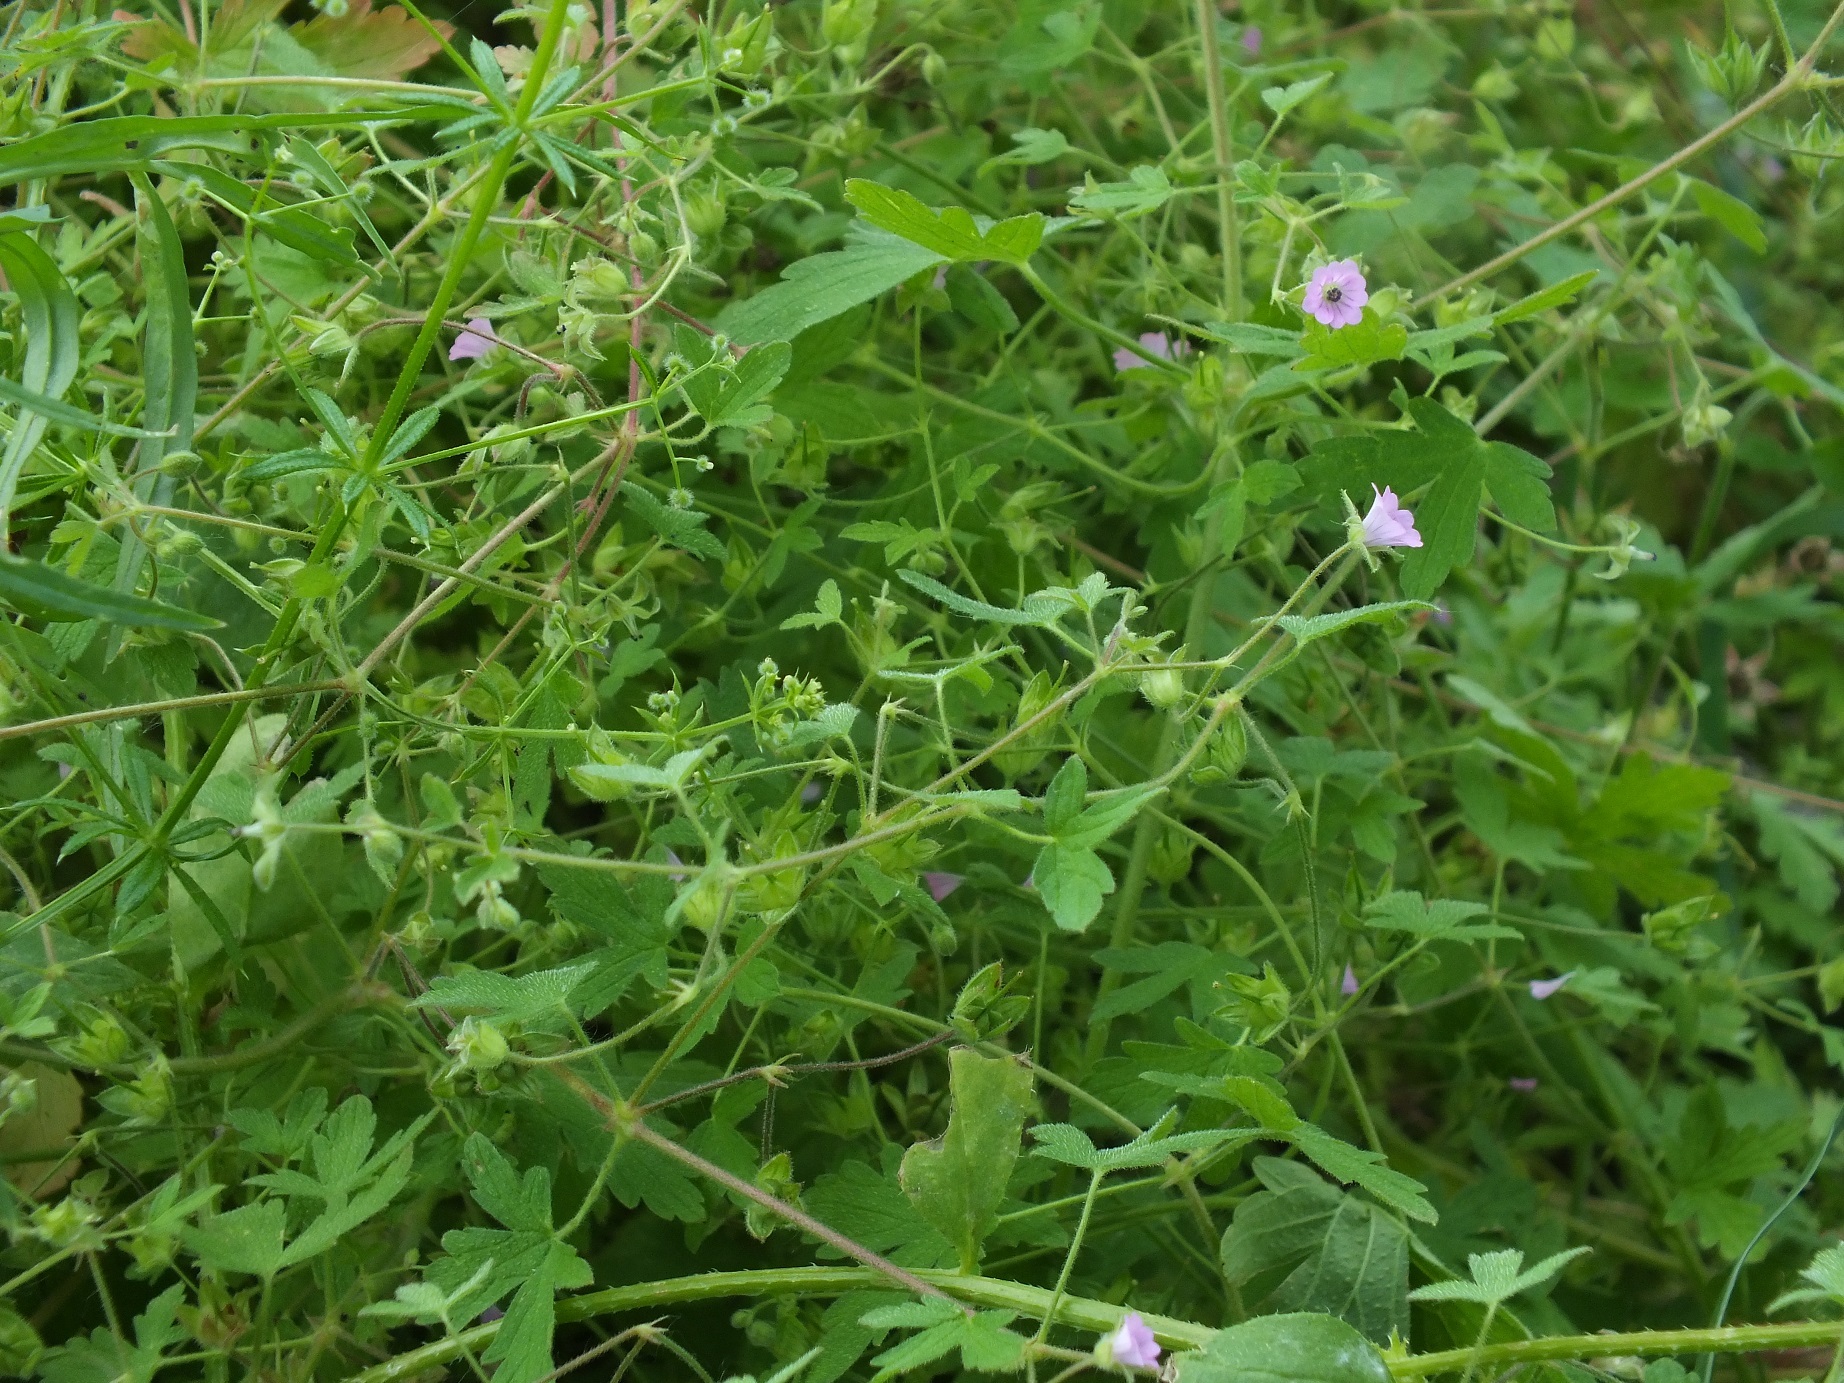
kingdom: Plantae
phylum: Tracheophyta
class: Magnoliopsida
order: Geraniales
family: Geraniaceae
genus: Geranium
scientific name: Geranium divaricatum
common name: Spreading crane's-bill
